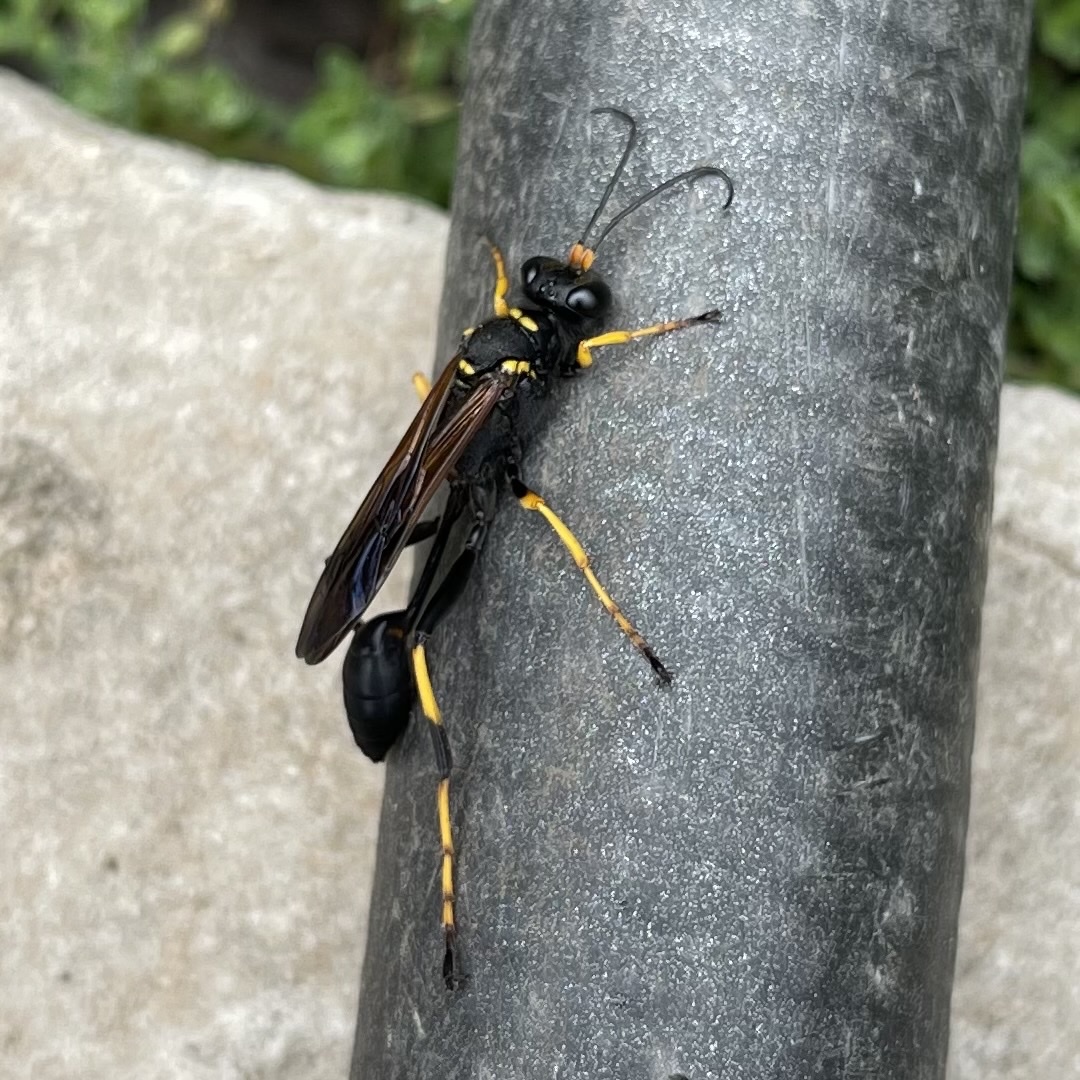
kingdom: Animalia
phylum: Arthropoda
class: Insecta
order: Hymenoptera
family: Sphecidae
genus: Sceliphron
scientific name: Sceliphron caementarium
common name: Mud dauber
